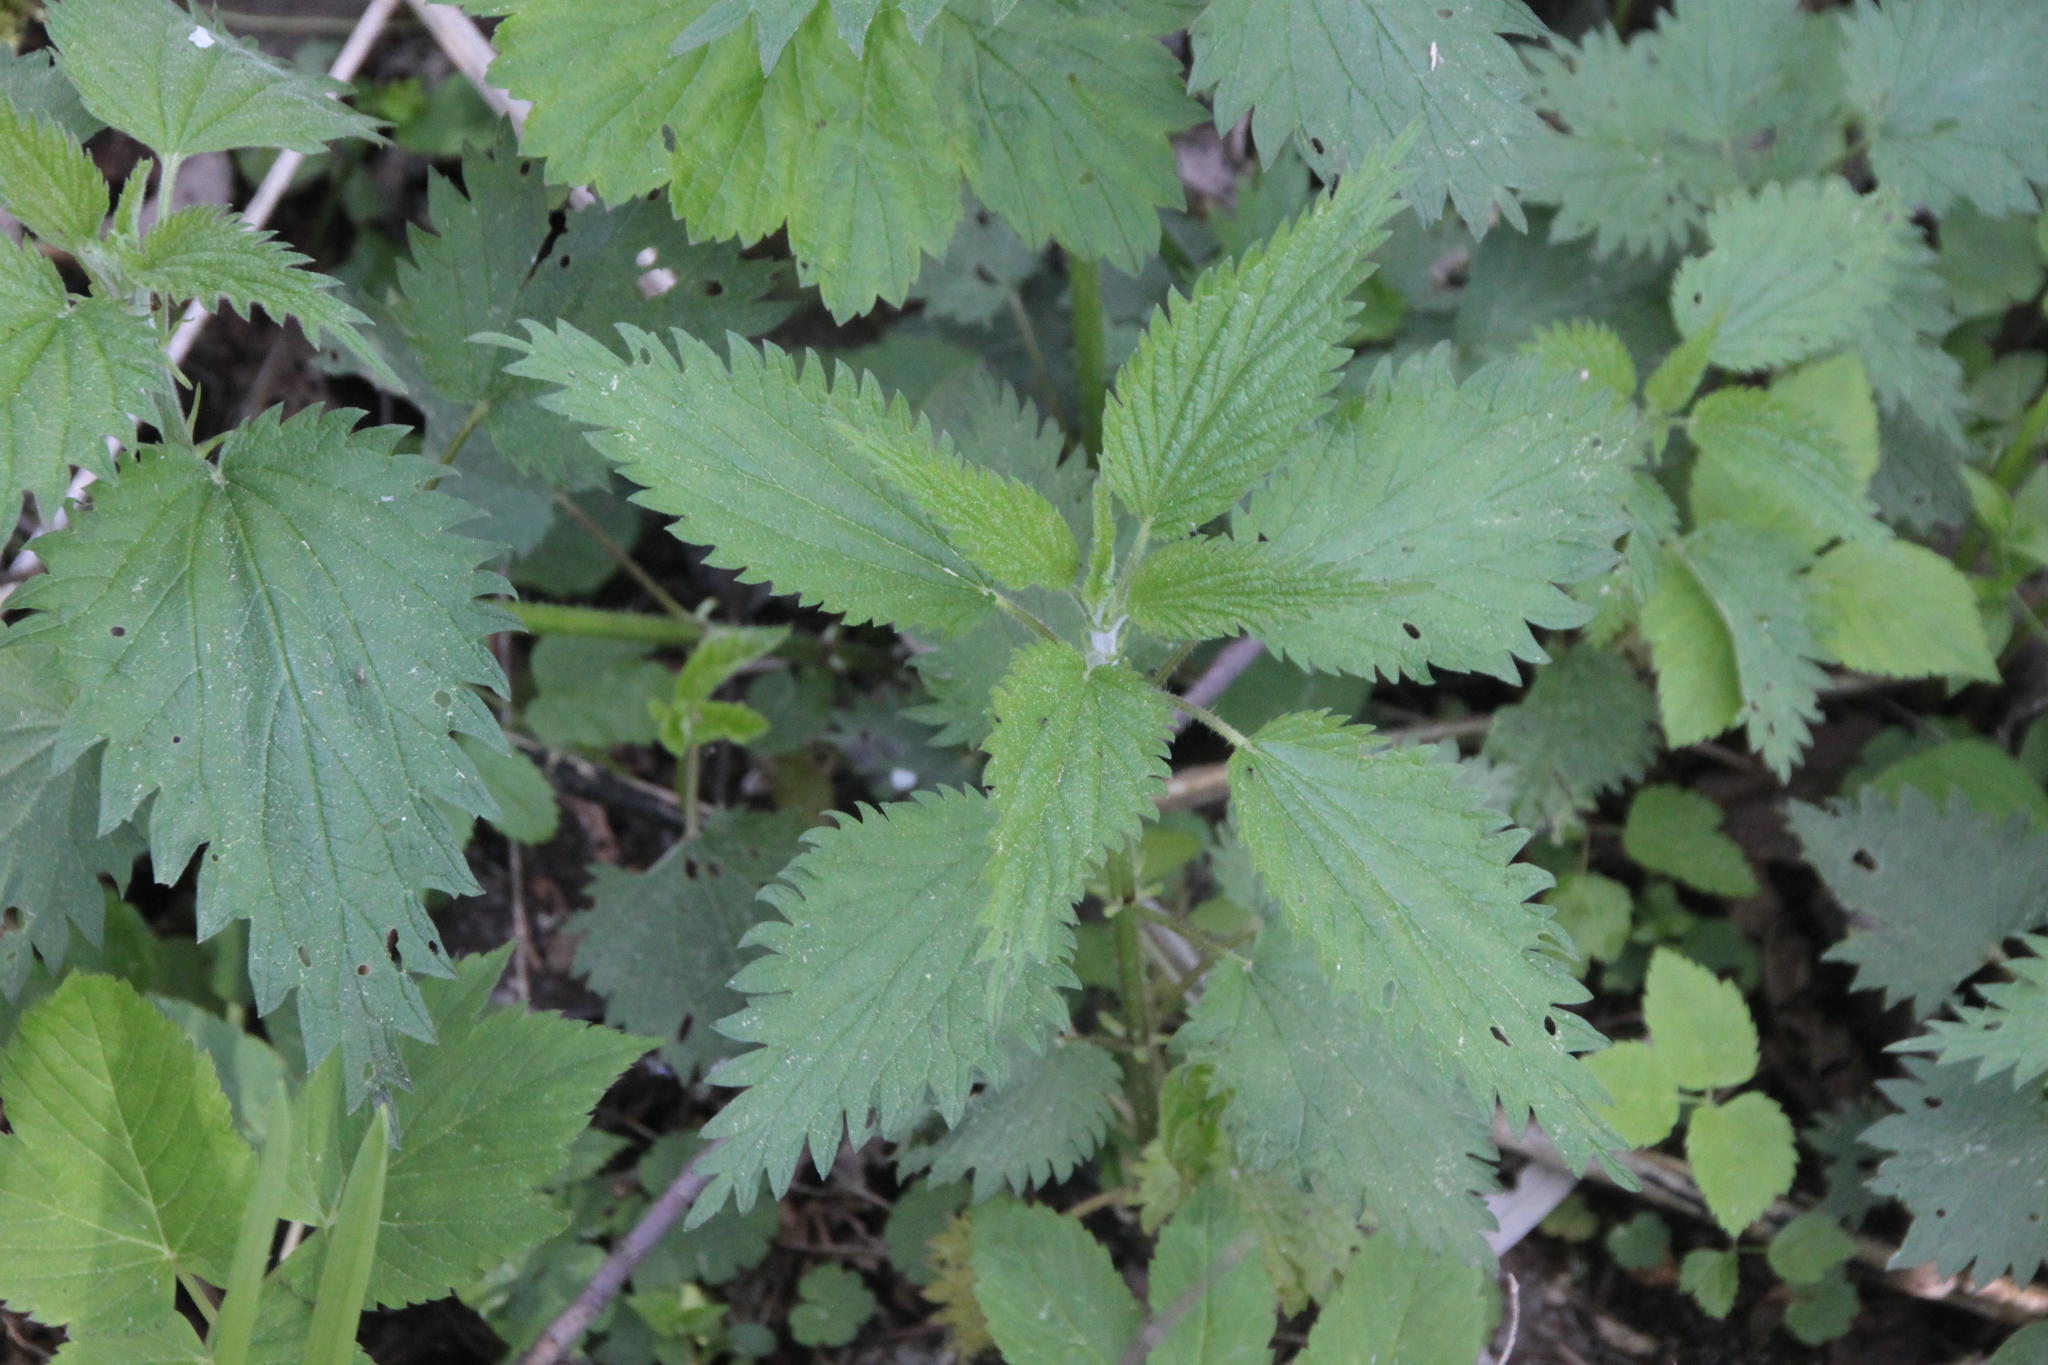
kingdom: Plantae
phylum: Tracheophyta
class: Magnoliopsida
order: Rosales
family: Urticaceae
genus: Urtica
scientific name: Urtica dioica
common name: Common nettle
